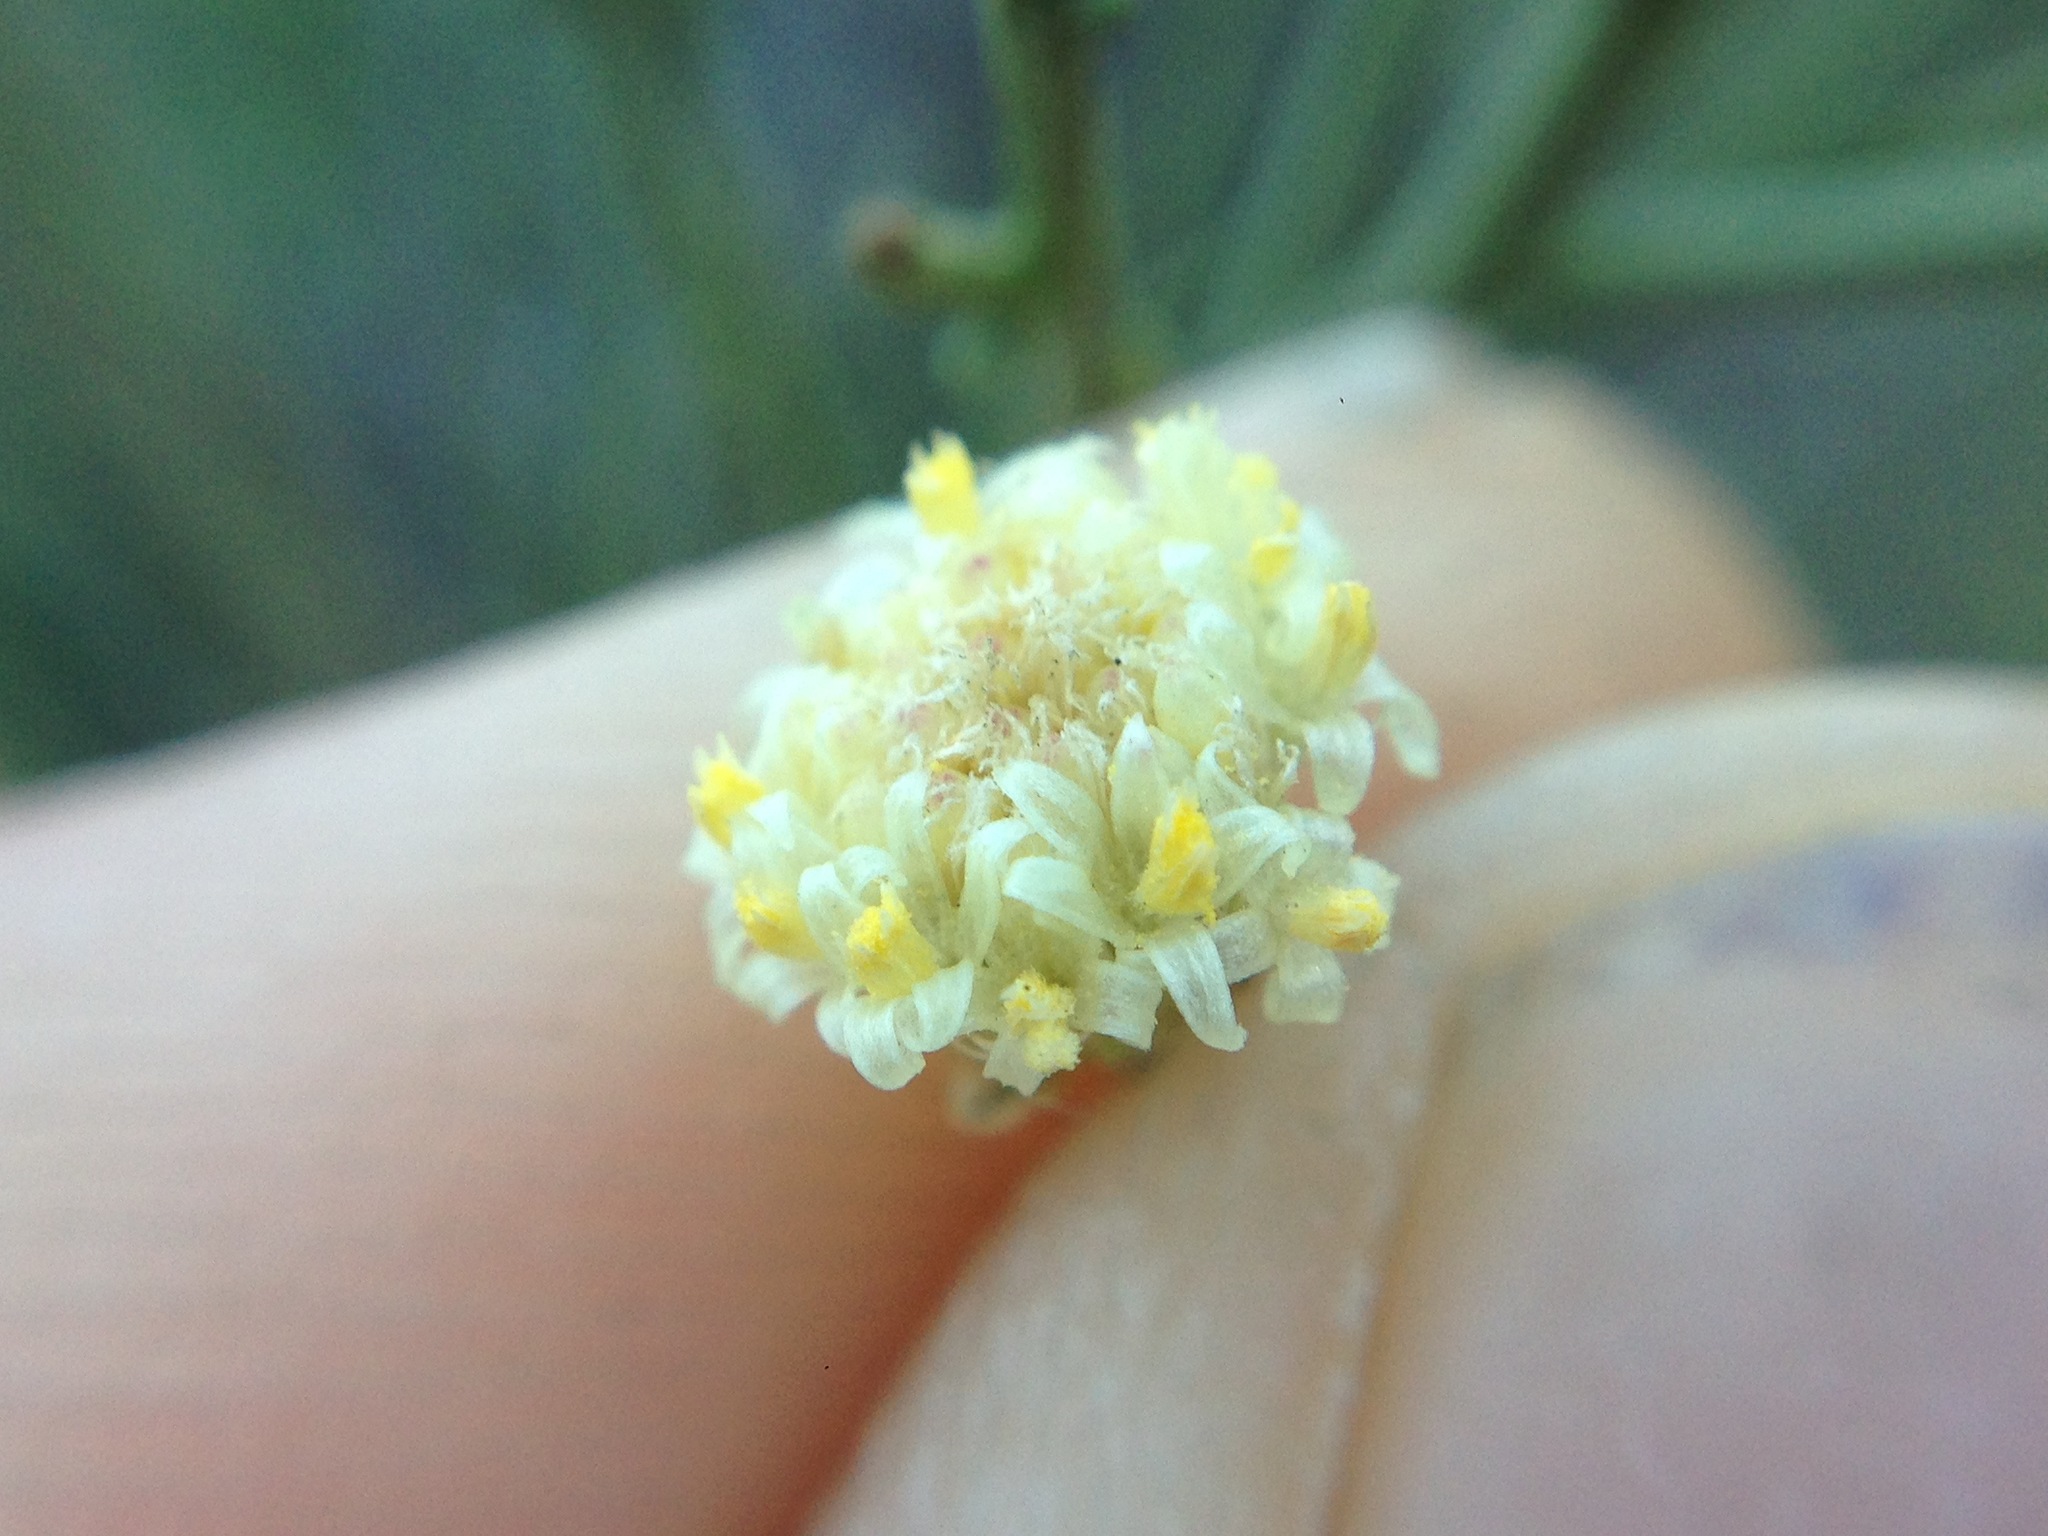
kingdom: Plantae
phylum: Tracheophyta
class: Magnoliopsida
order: Asterales
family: Asteraceae
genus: Baccharis
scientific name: Baccharis sarothroides
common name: Desert-broom
